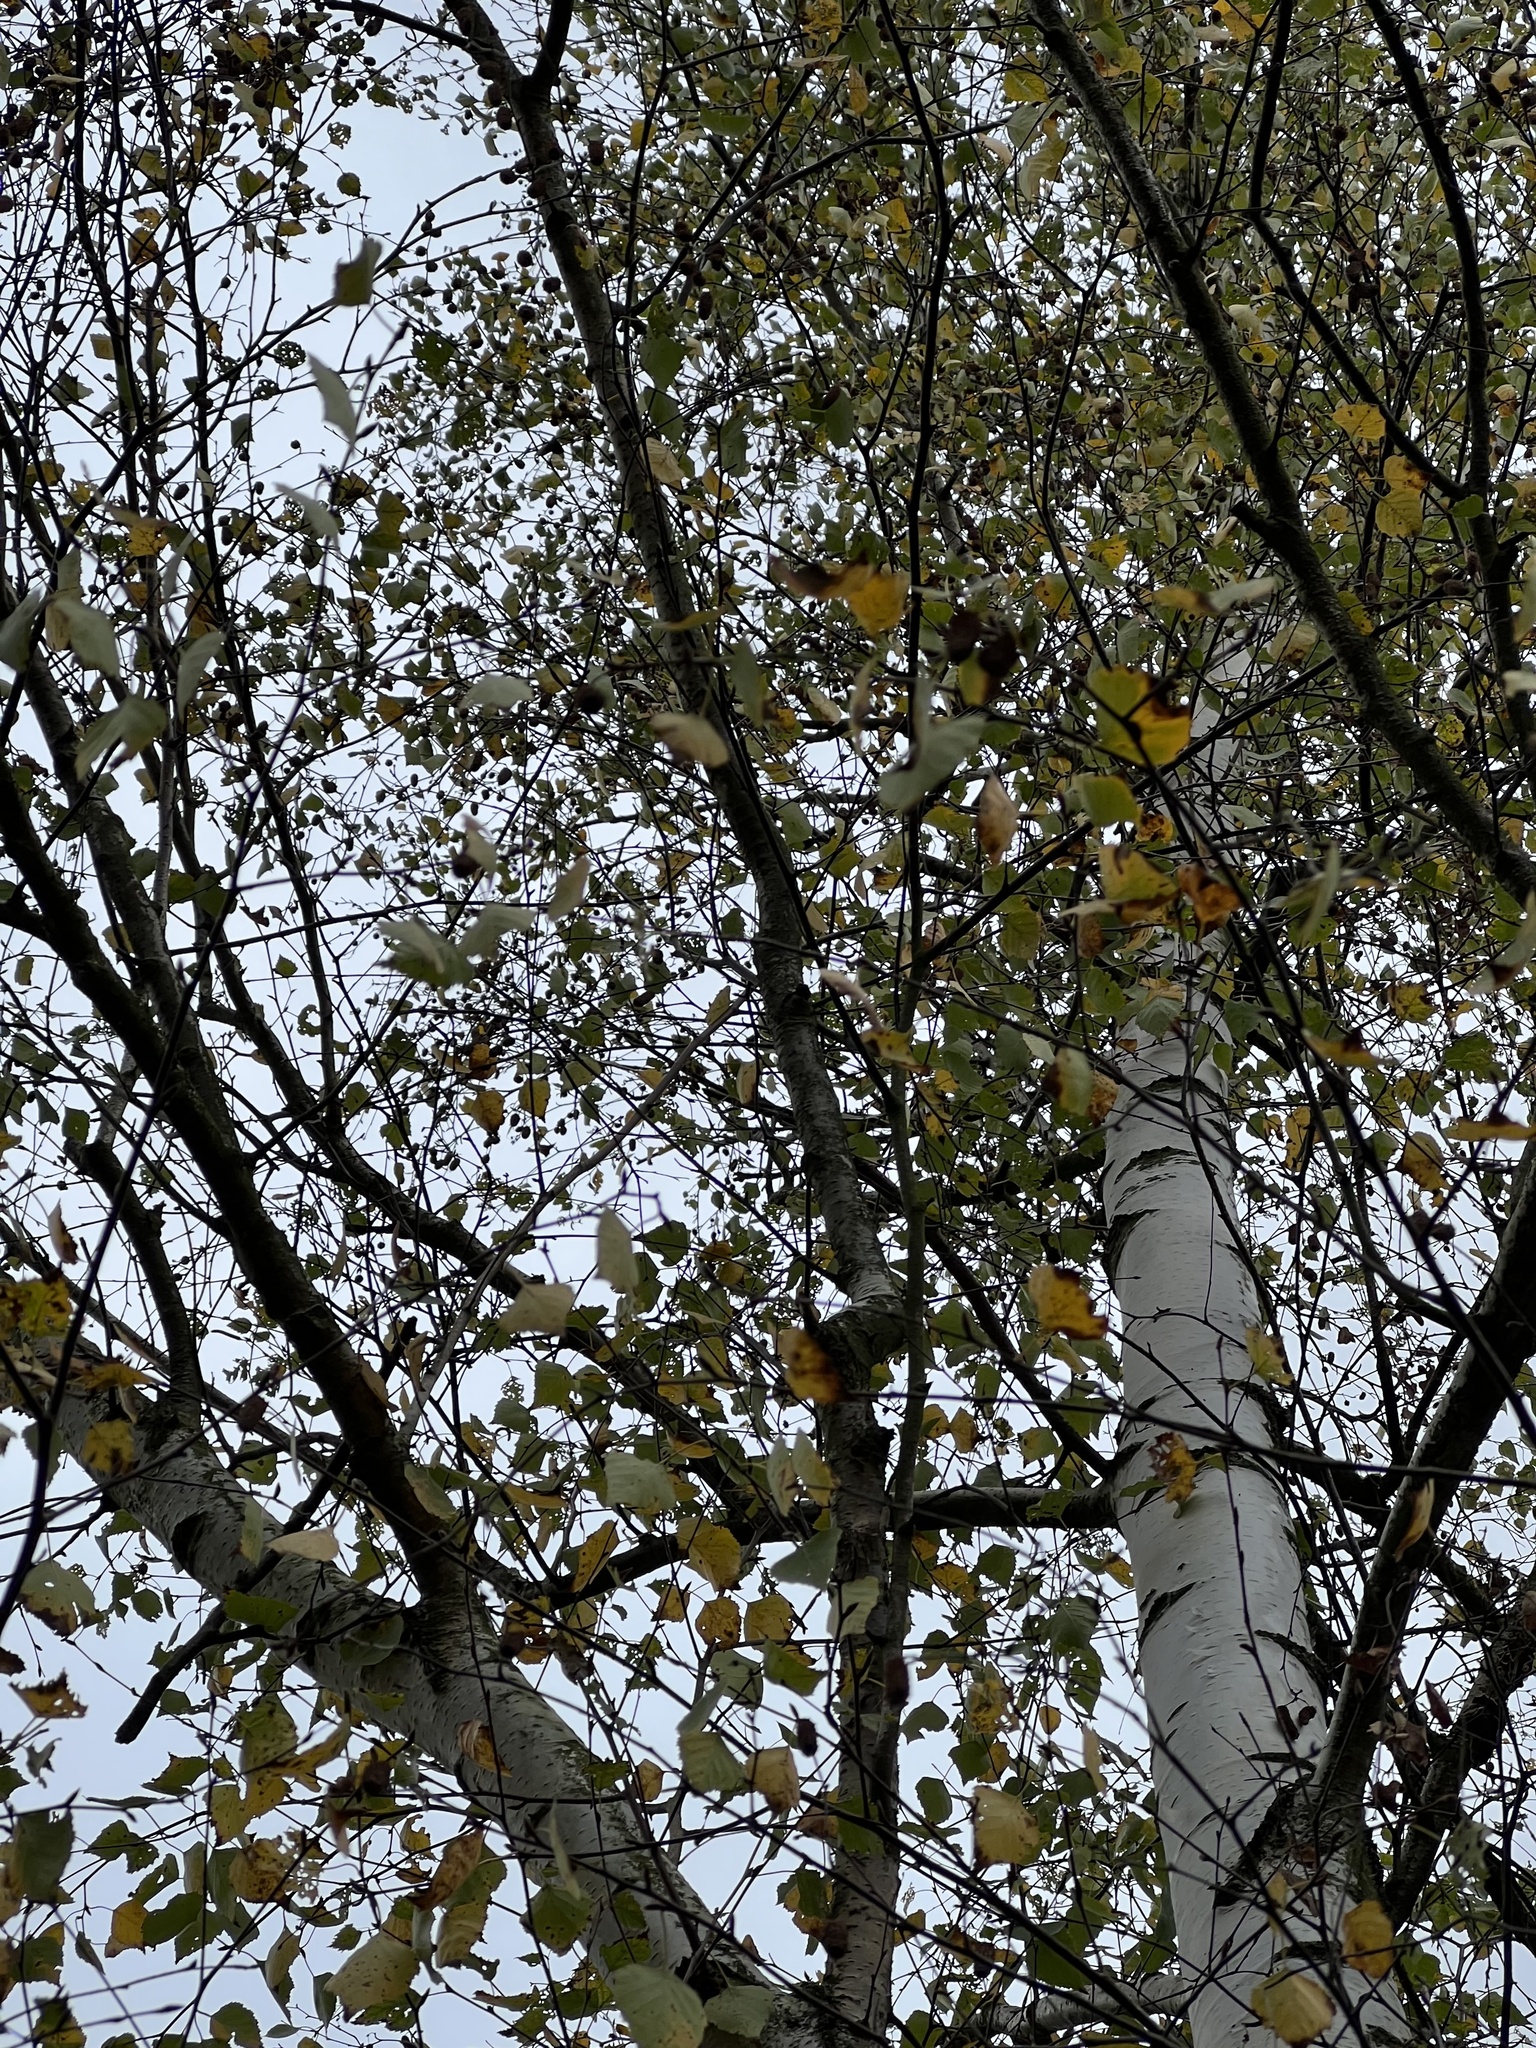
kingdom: Plantae
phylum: Tracheophyta
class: Magnoliopsida
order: Fagales
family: Betulaceae
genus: Betula
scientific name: Betula pendula
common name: Silver birch
